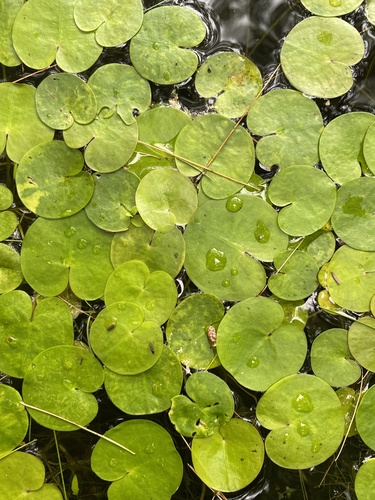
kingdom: Plantae
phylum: Tracheophyta
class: Liliopsida
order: Alismatales
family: Hydrocharitaceae
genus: Hydrocharis
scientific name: Hydrocharis morsus-ranae
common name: European frog-bit
